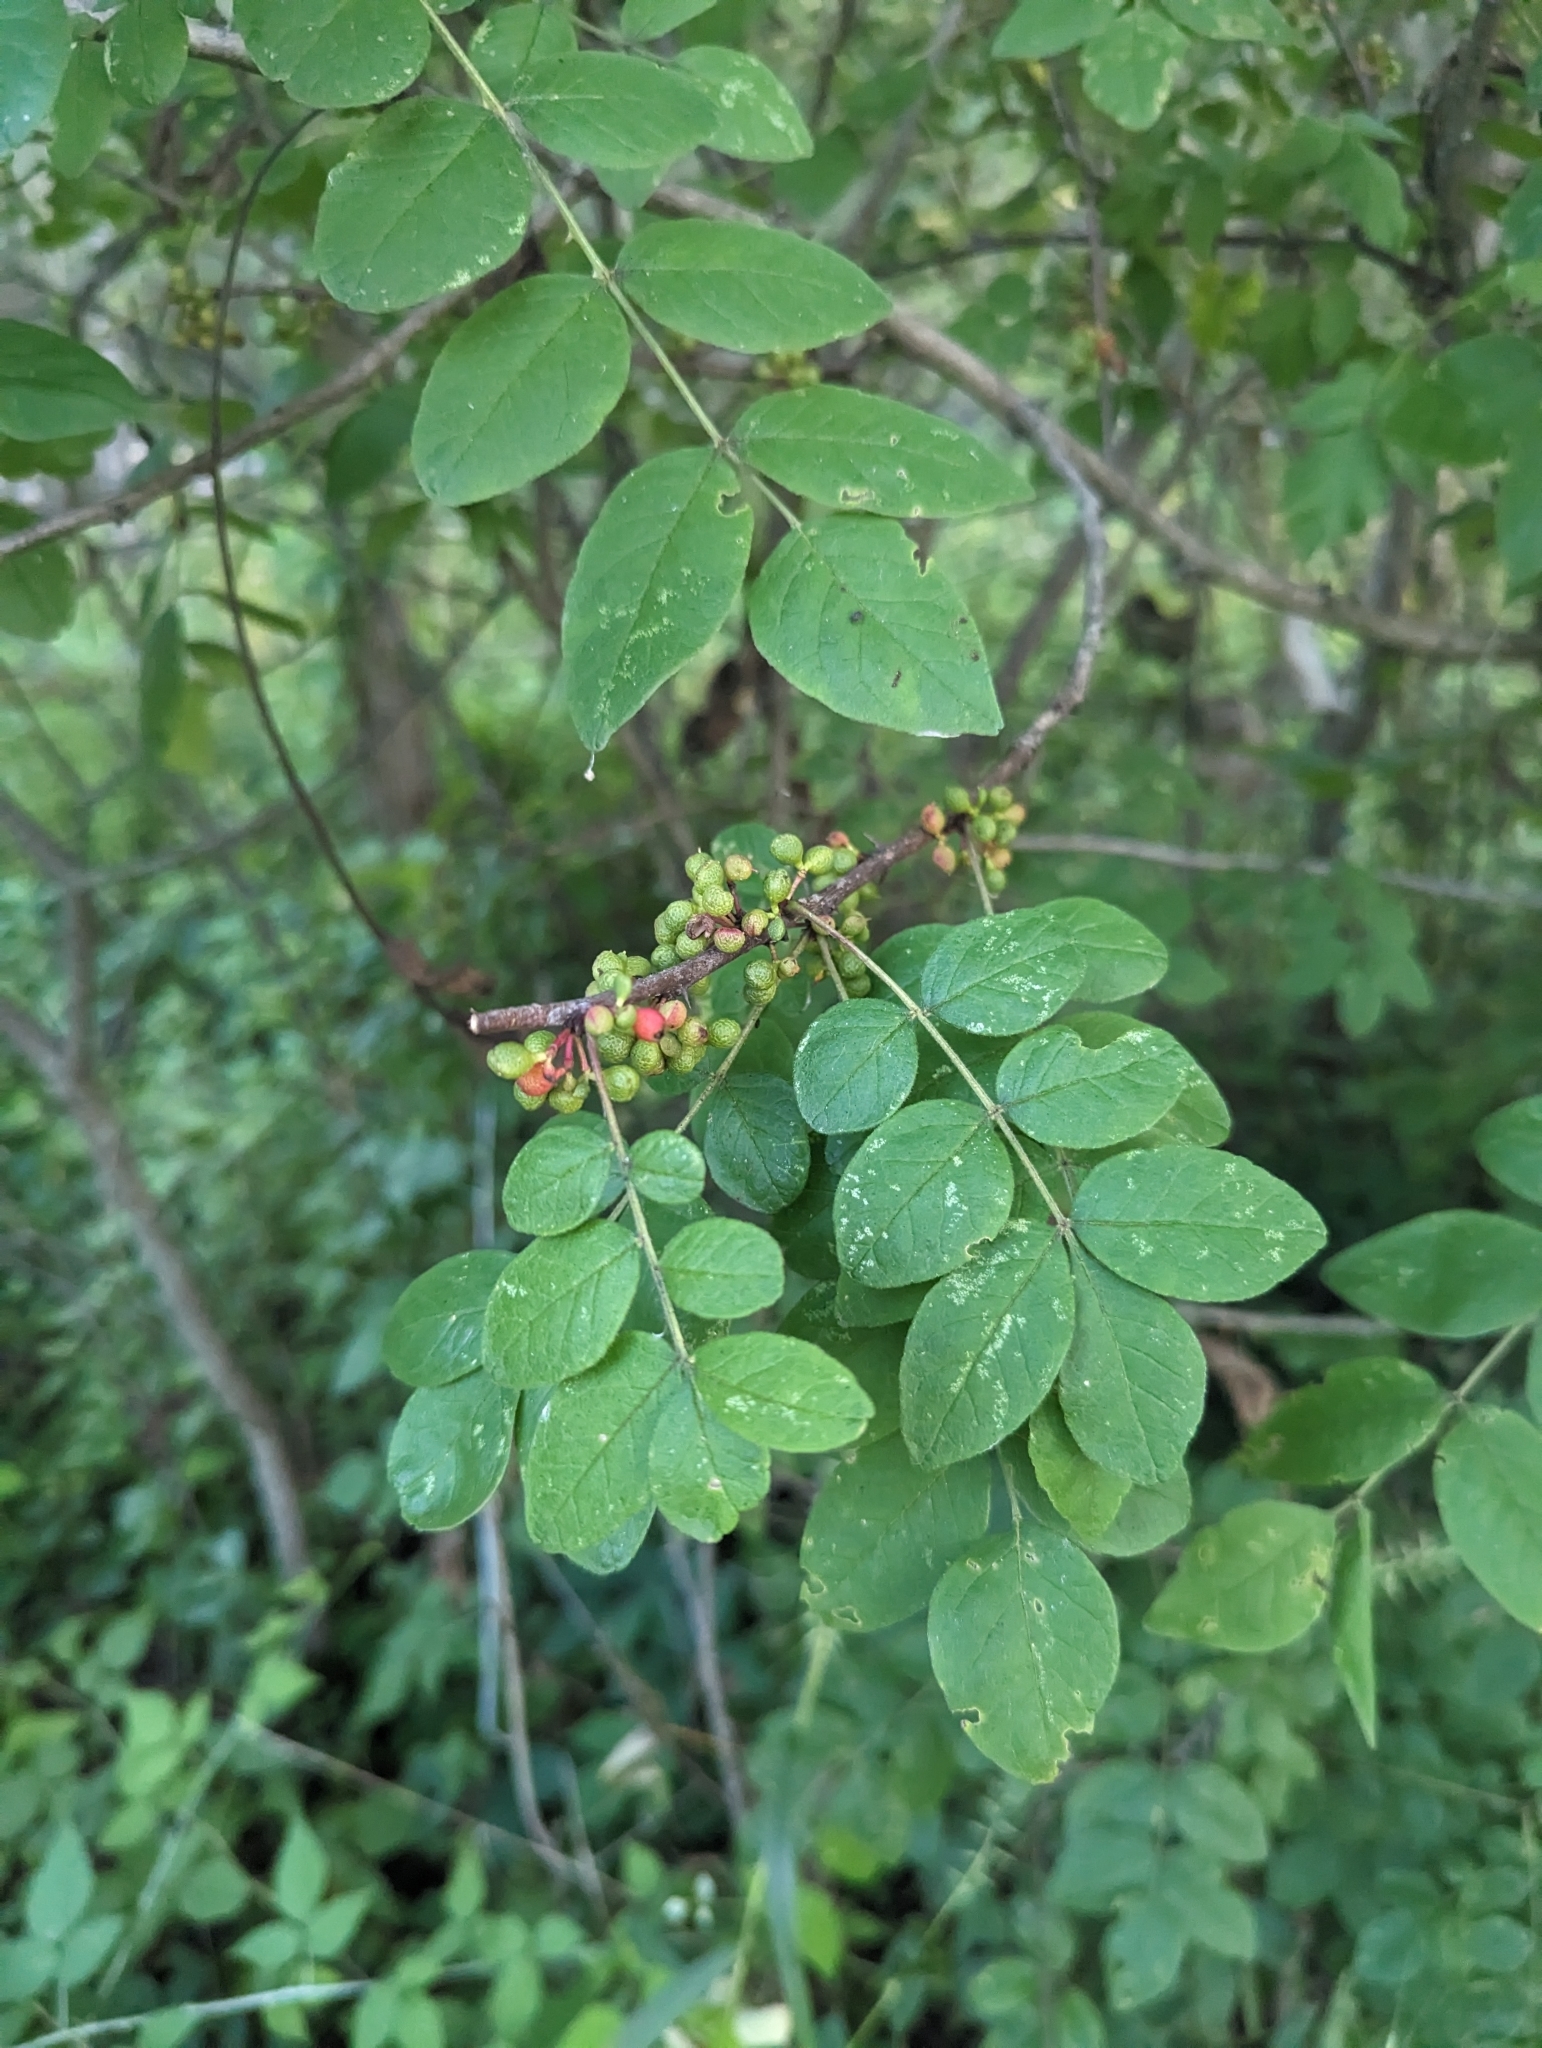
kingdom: Plantae
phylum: Tracheophyta
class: Magnoliopsida
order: Sapindales
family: Rutaceae
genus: Zanthoxylum
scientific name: Zanthoxylum americanum
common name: Northern prickly-ash
